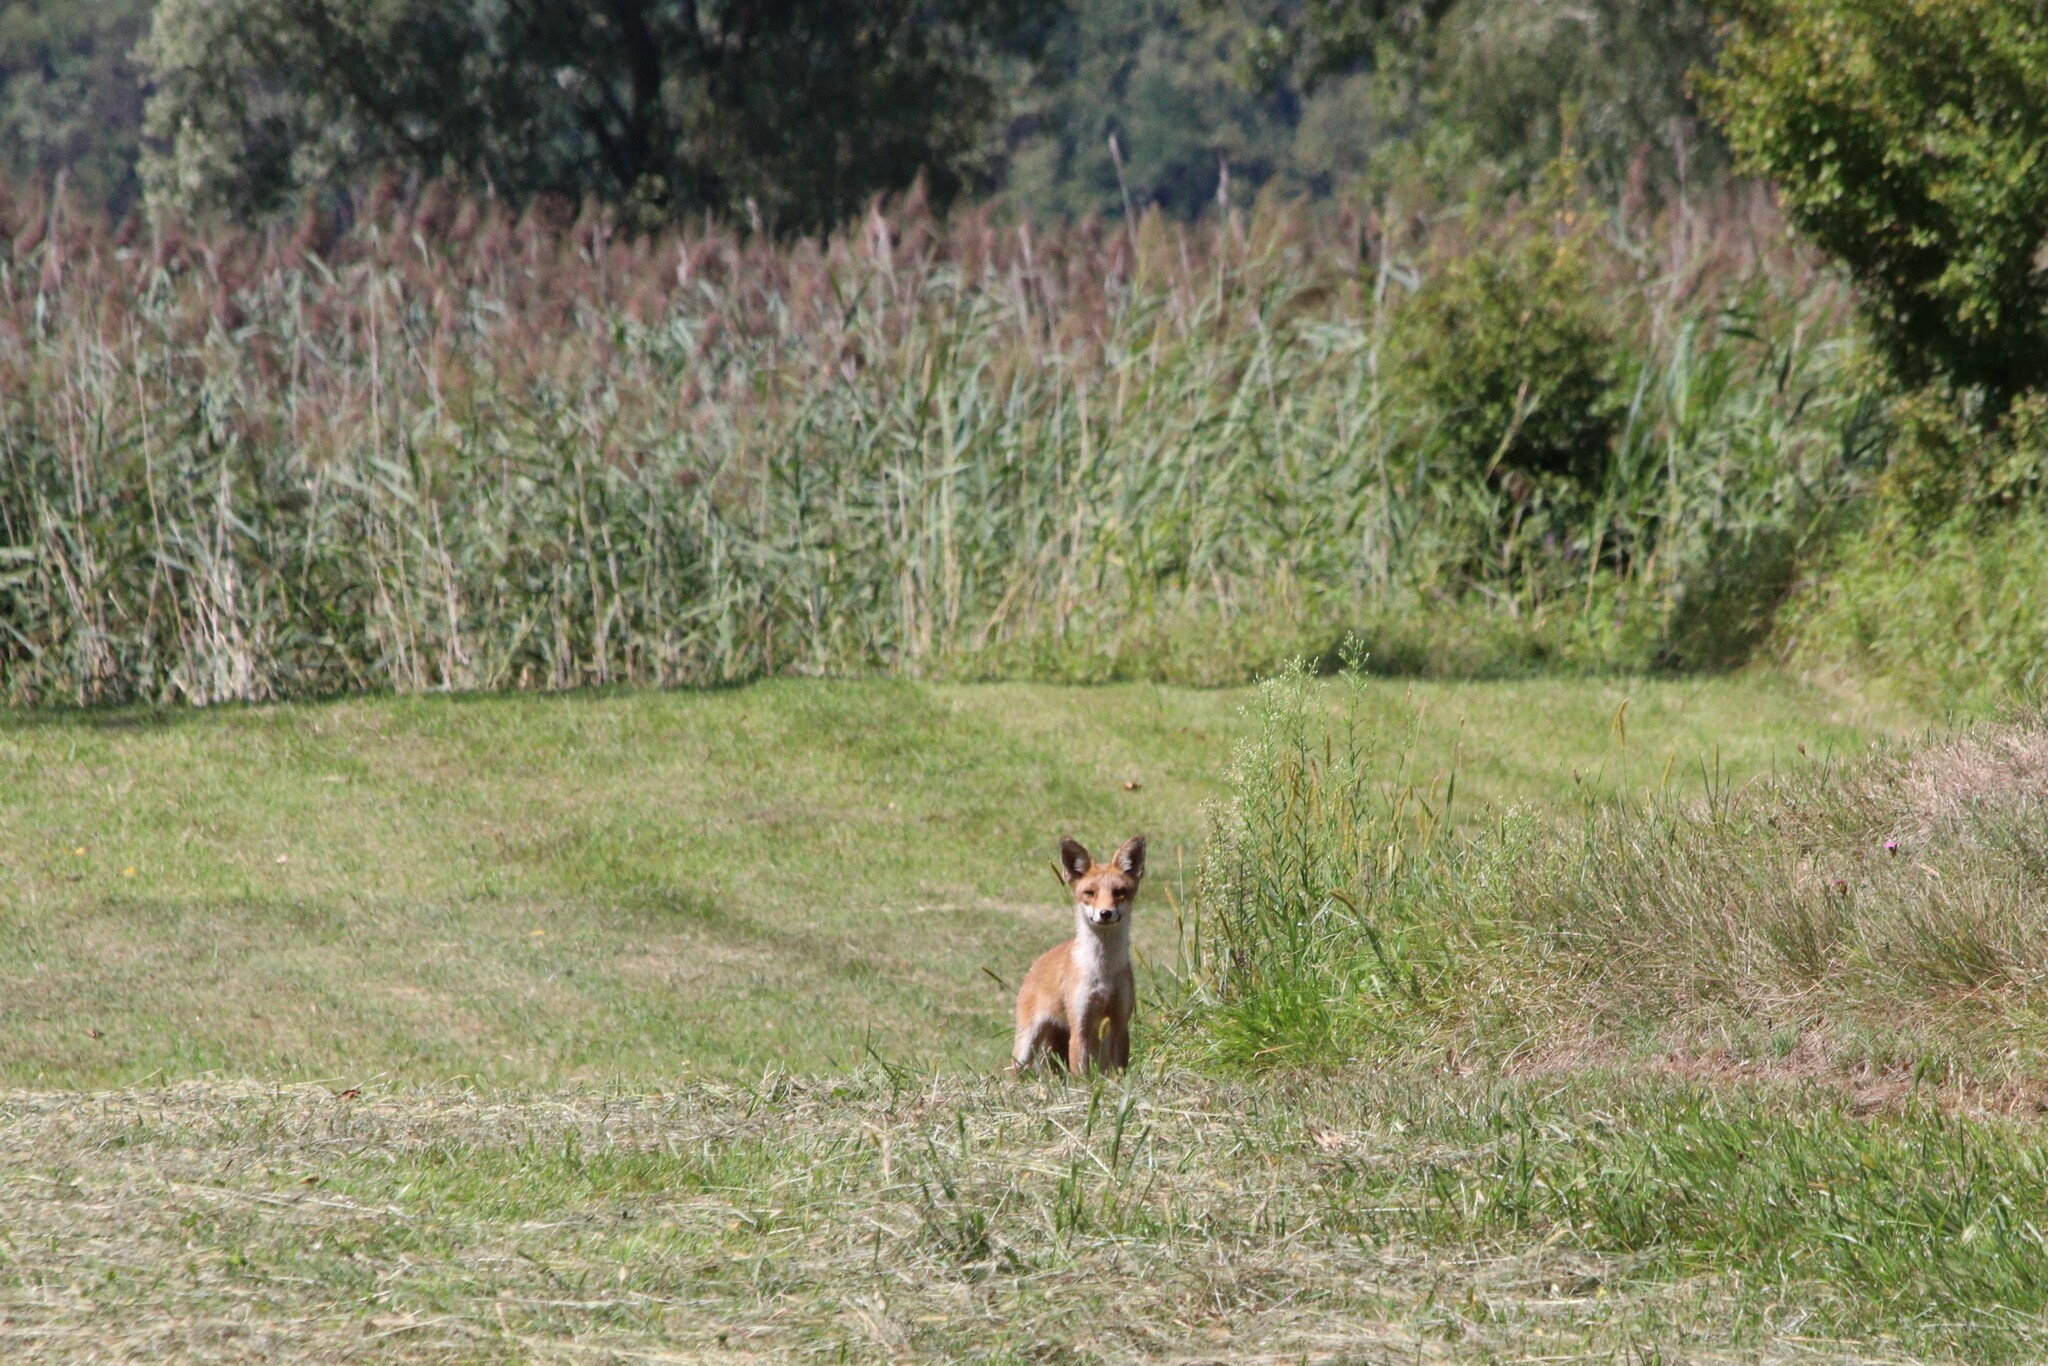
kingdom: Animalia
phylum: Chordata
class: Mammalia
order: Carnivora
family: Canidae
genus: Vulpes
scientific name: Vulpes vulpes
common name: Red fox
